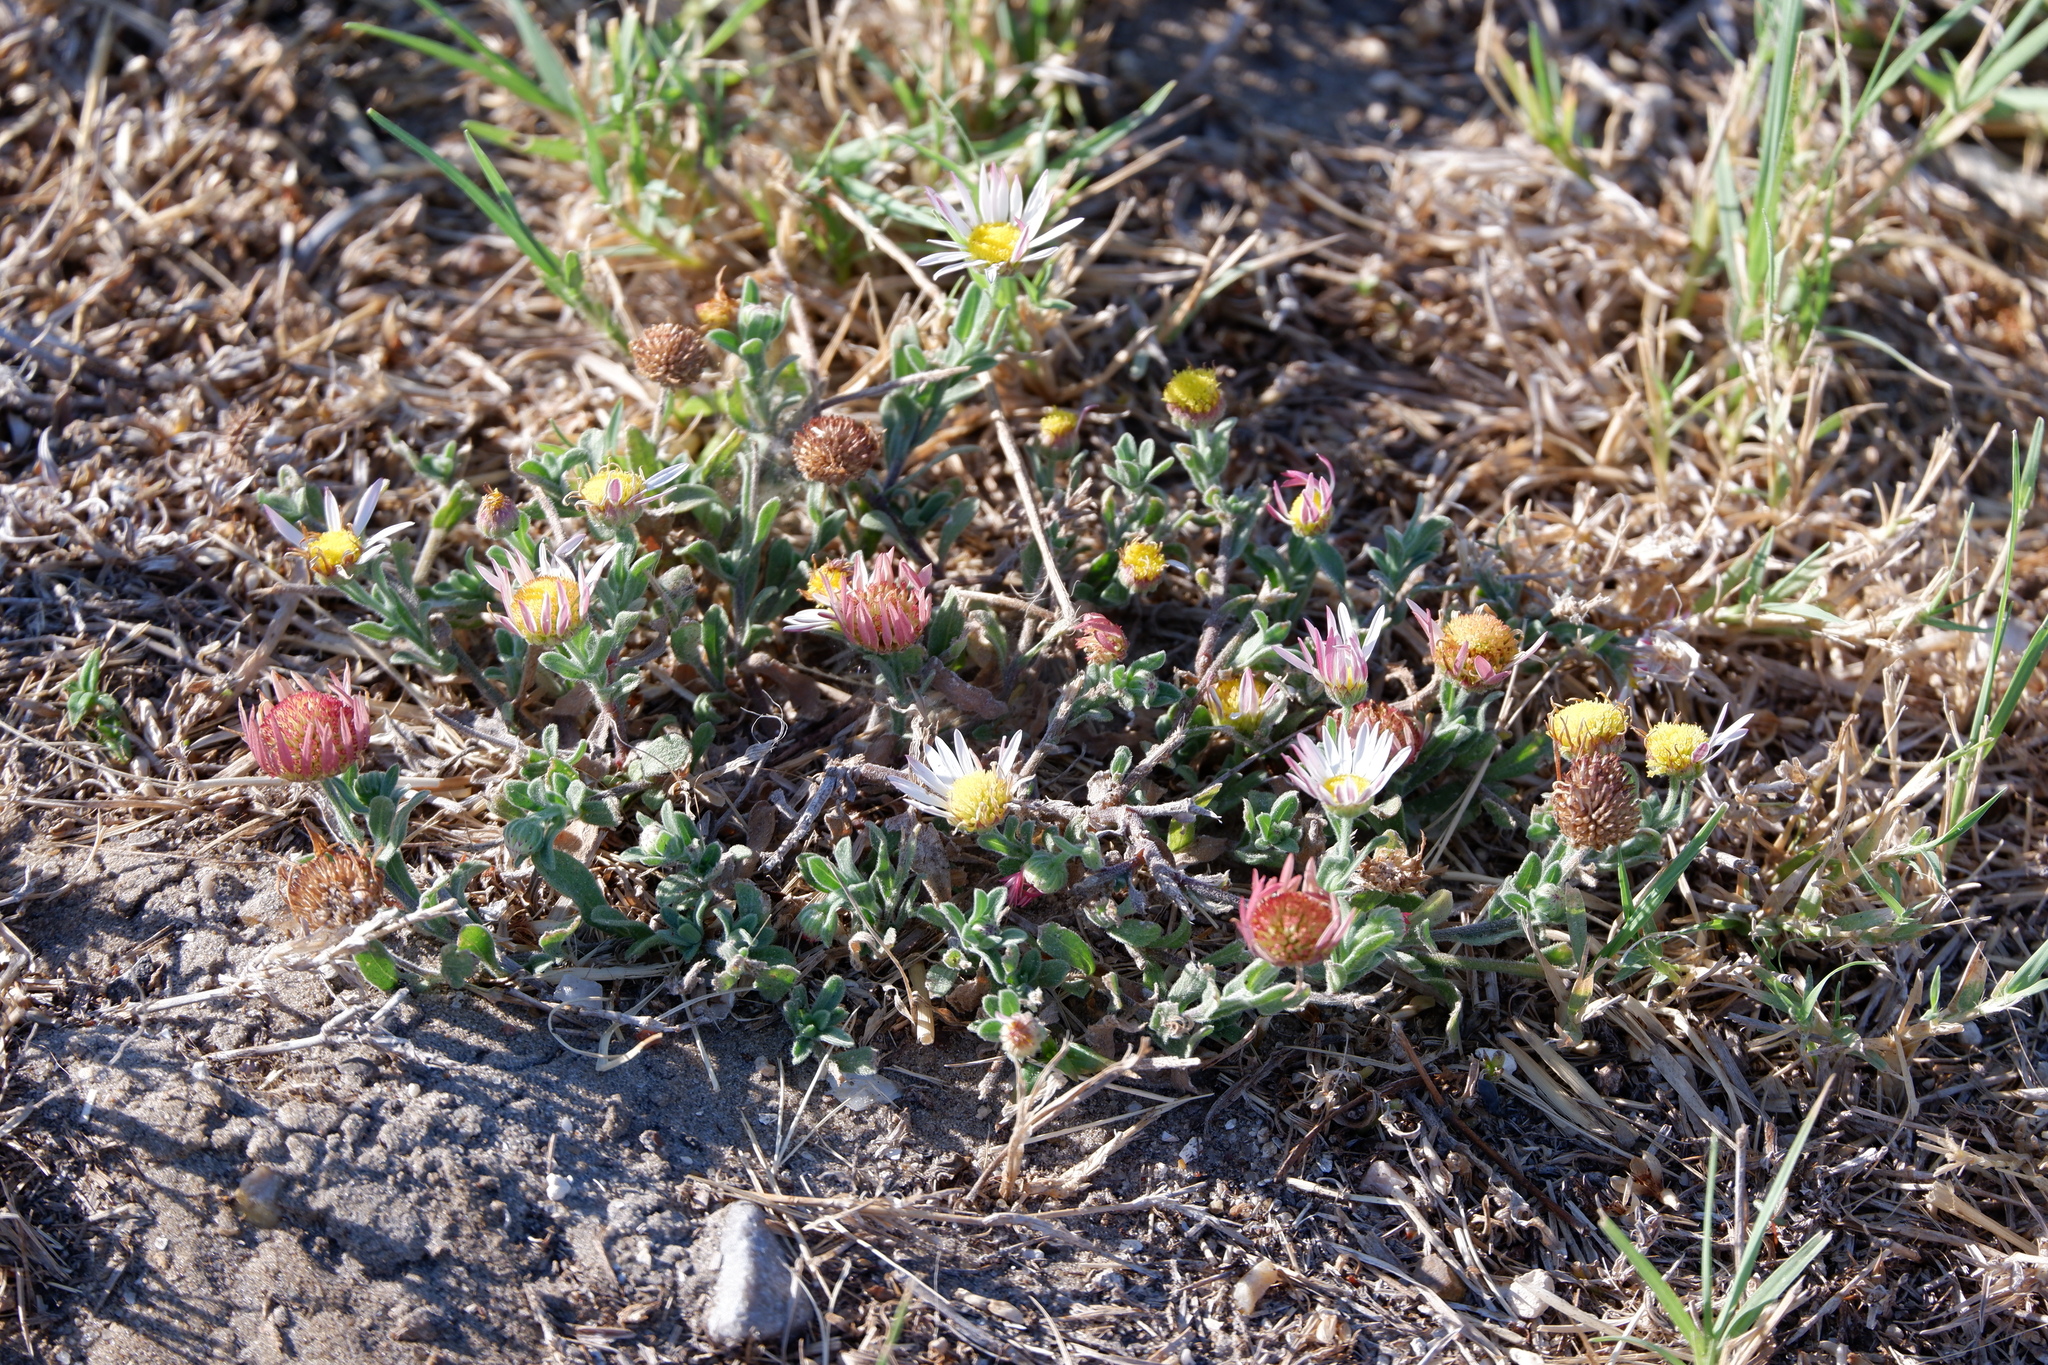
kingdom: Plantae
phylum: Tracheophyta
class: Magnoliopsida
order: Asterales
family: Asteraceae
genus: Aphanostephus
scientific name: Aphanostephus ramosissimus
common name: Plains lazy daisy
